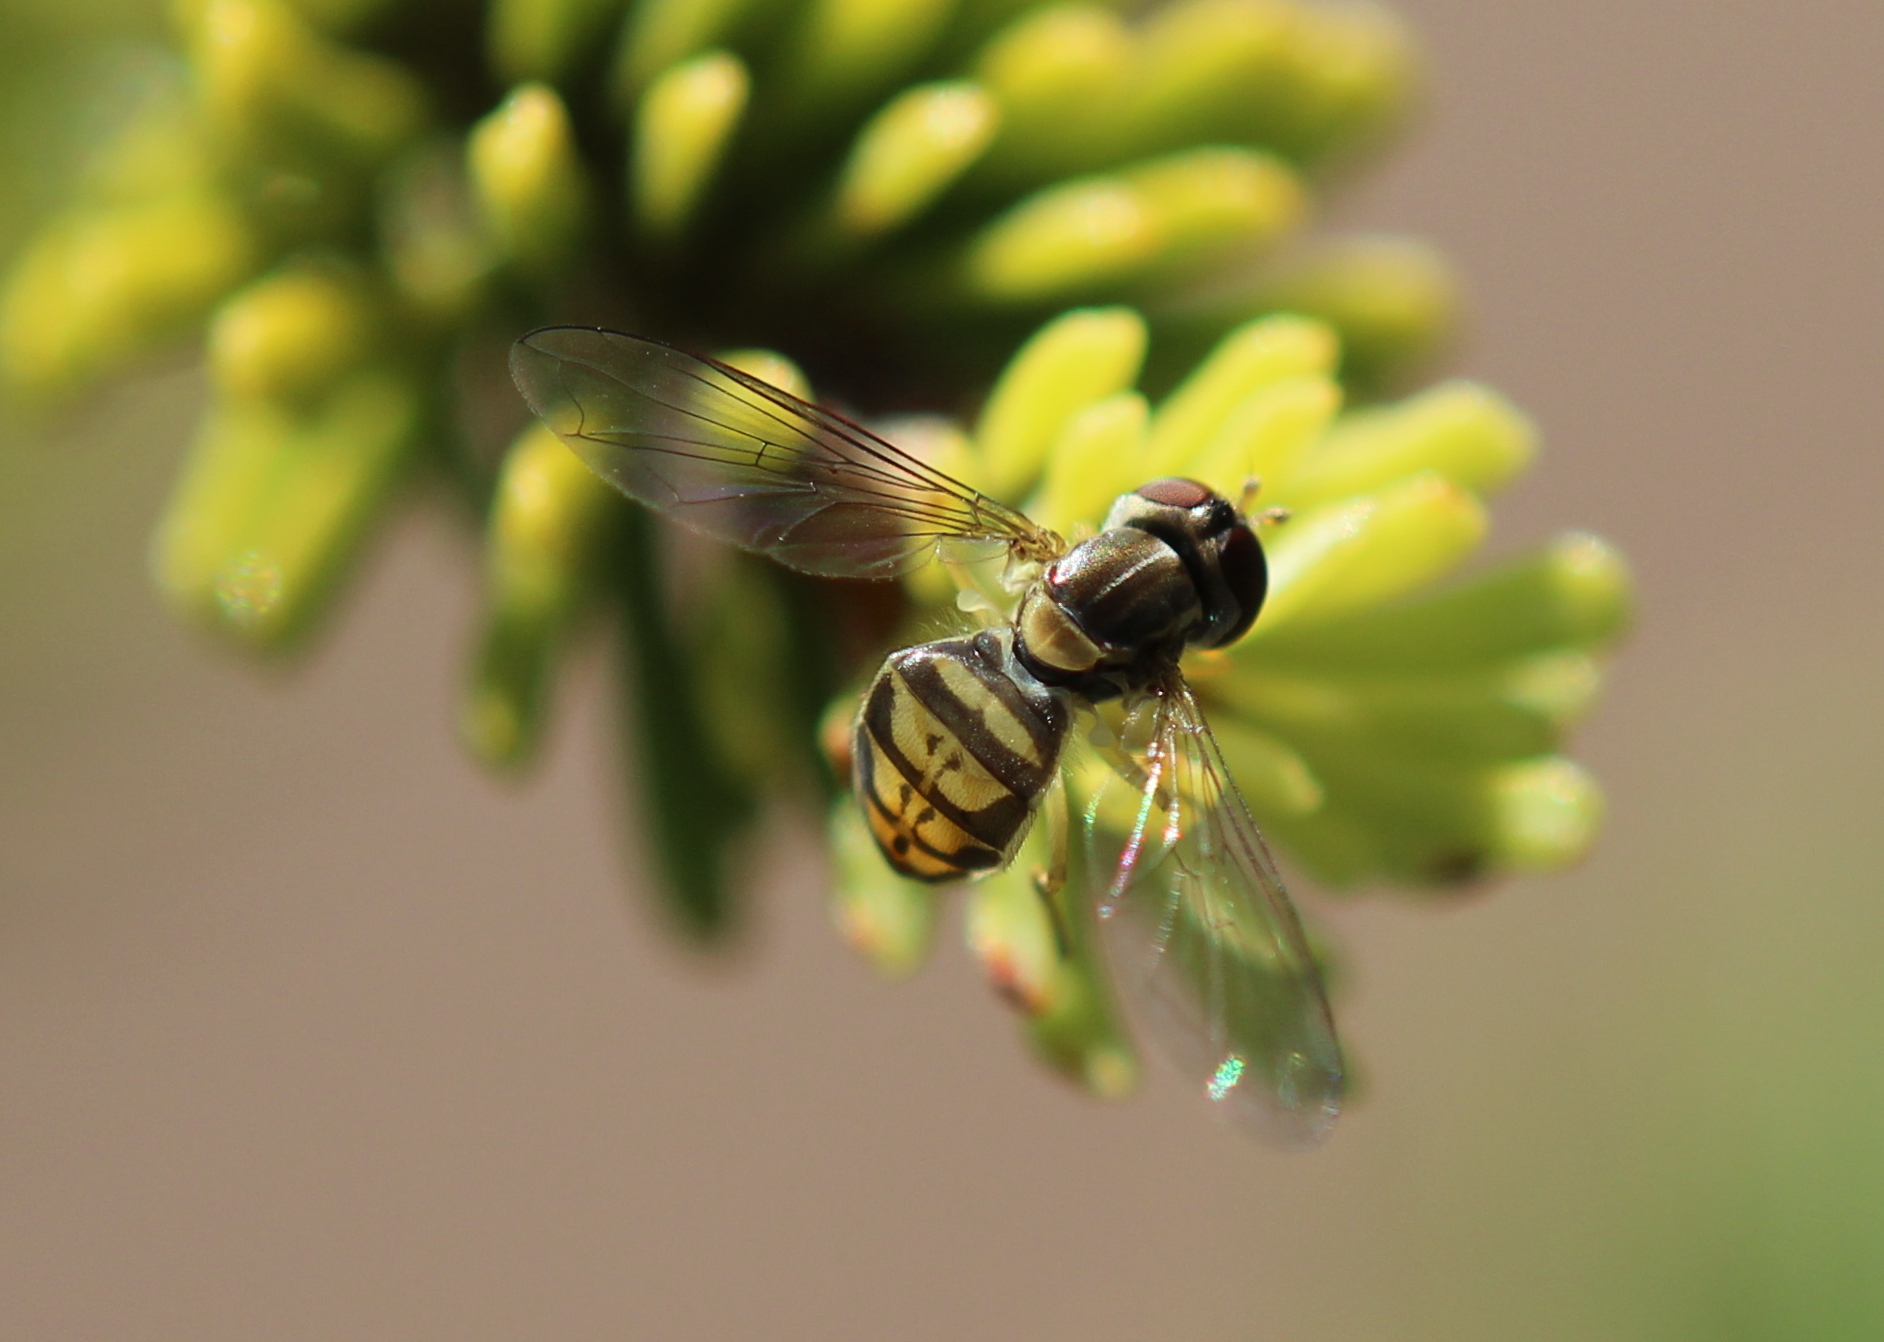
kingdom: Animalia
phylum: Arthropoda
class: Insecta
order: Diptera
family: Syrphidae
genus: Toxomerus
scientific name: Toxomerus marginatus
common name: Syrphid fly
